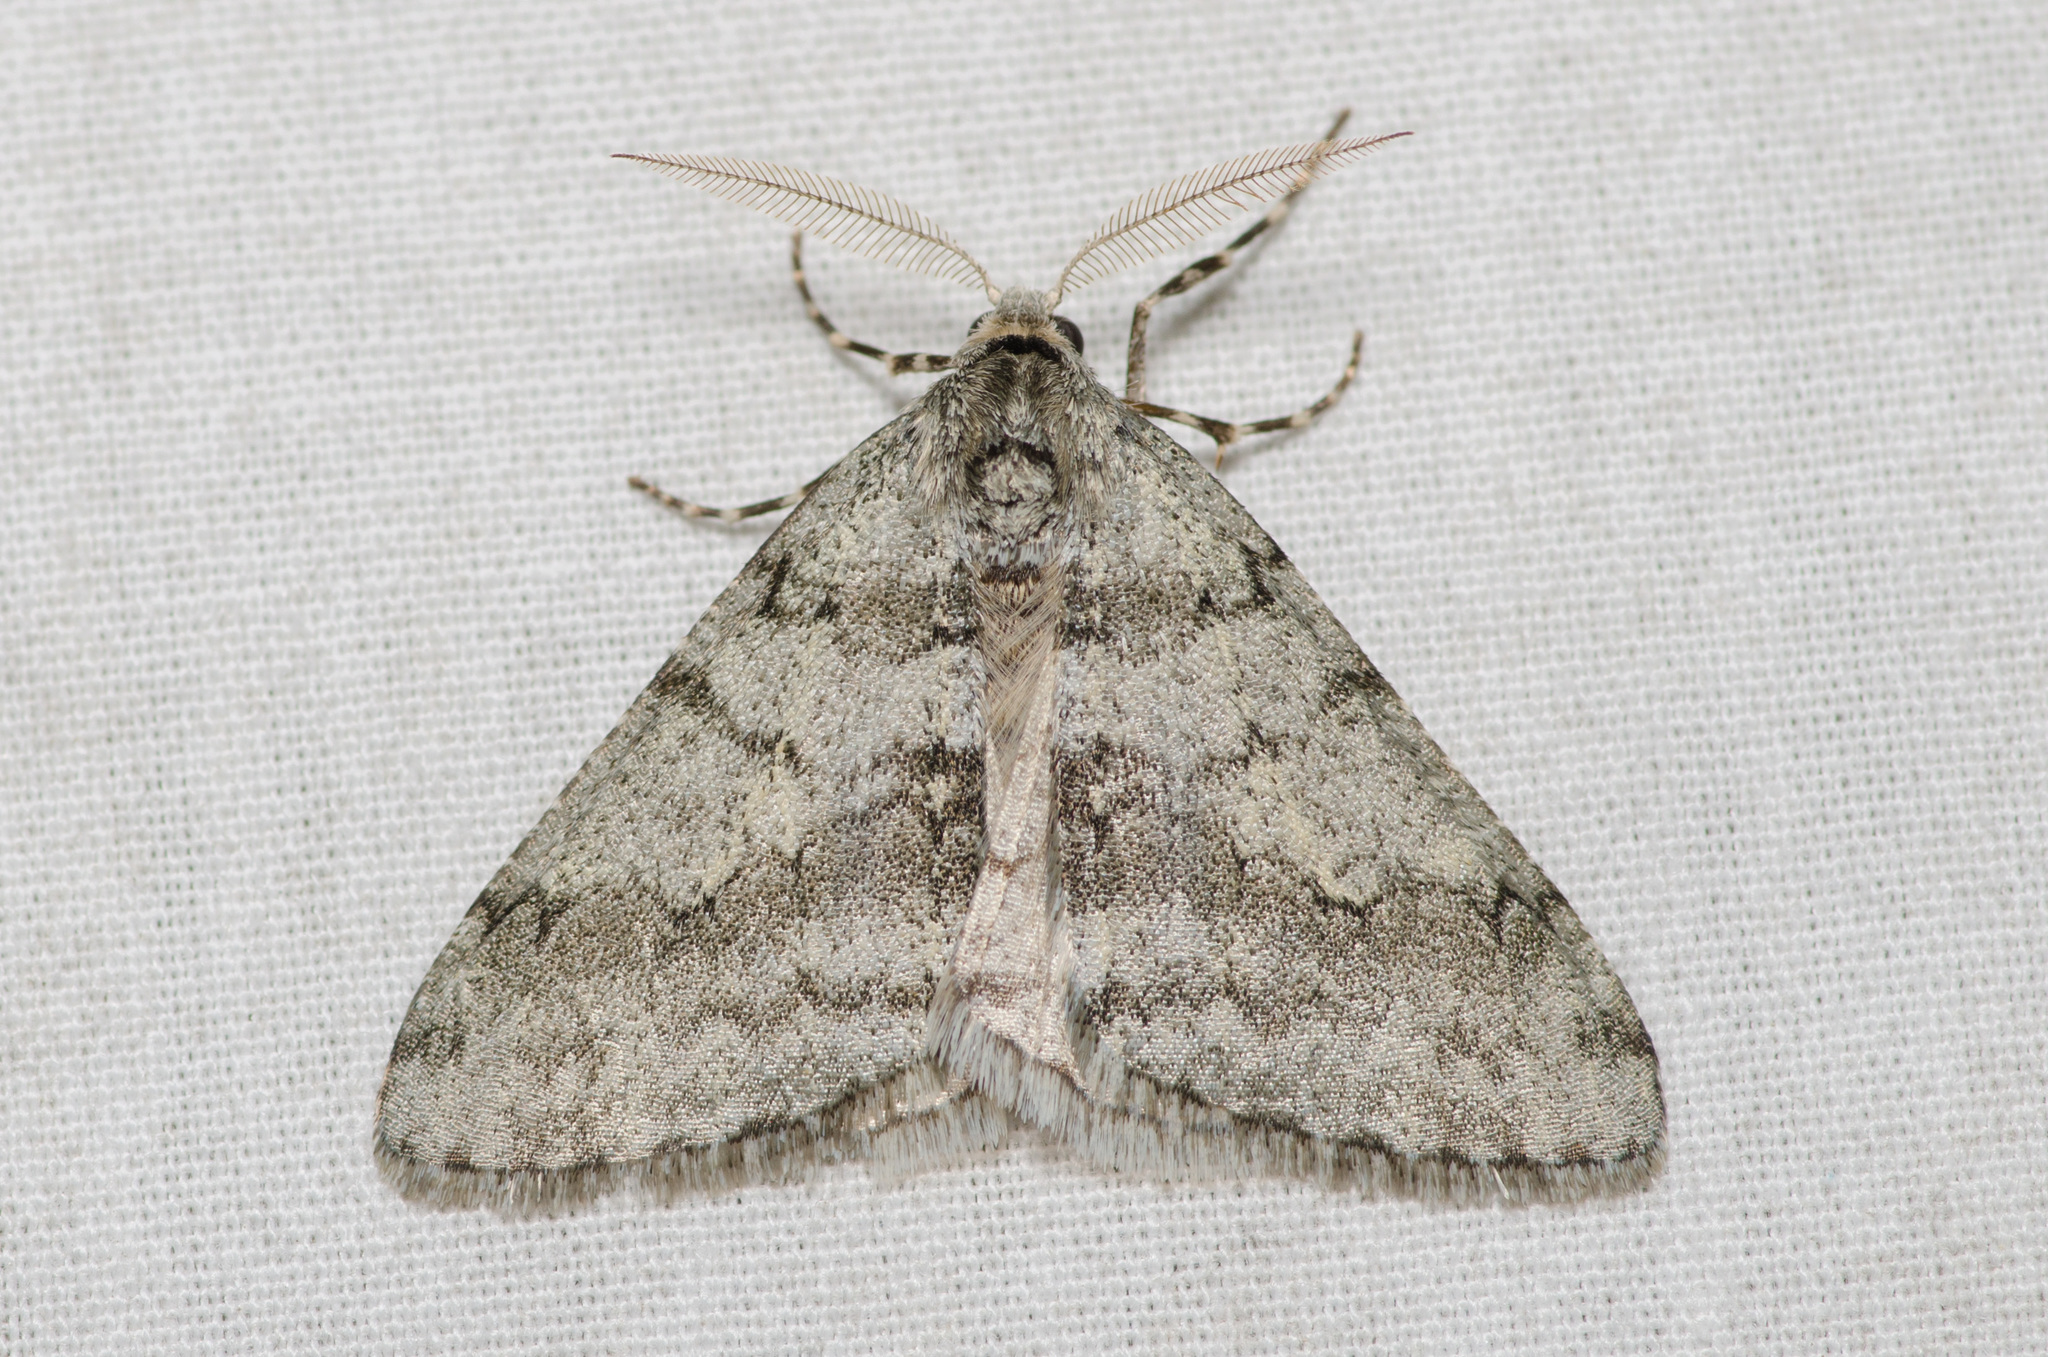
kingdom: Animalia
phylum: Arthropoda
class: Insecta
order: Lepidoptera
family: Geometridae
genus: Phigalia
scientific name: Phigalia strigataria
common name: Small phigalia
